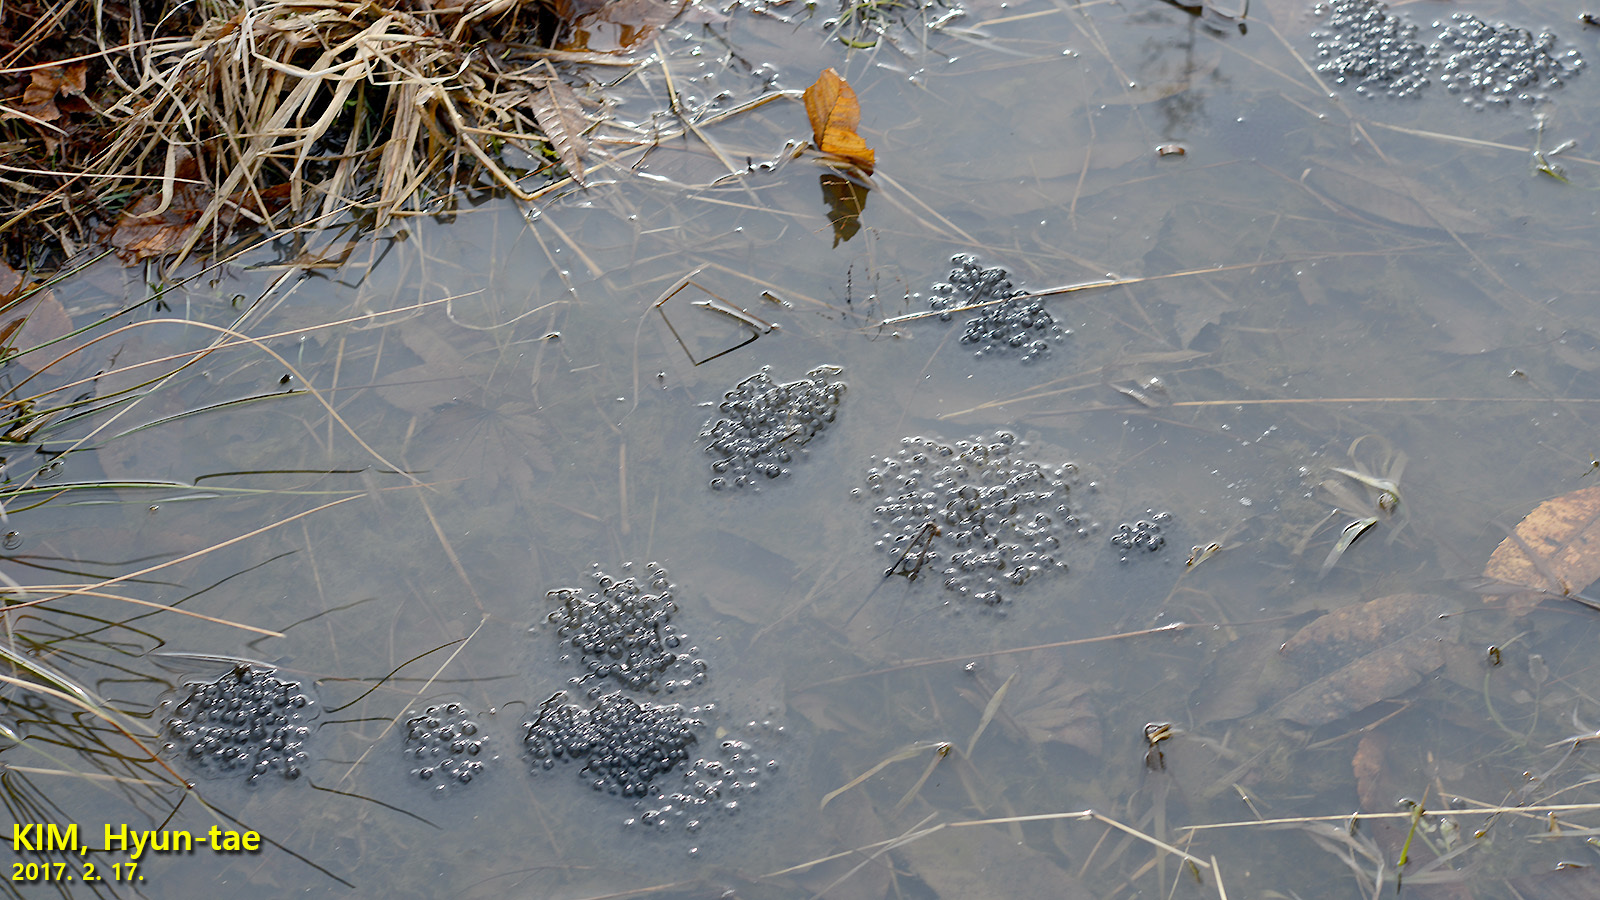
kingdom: Animalia
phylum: Chordata
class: Amphibia
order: Anura
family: Ranidae
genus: Rana
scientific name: Rana uenoi
